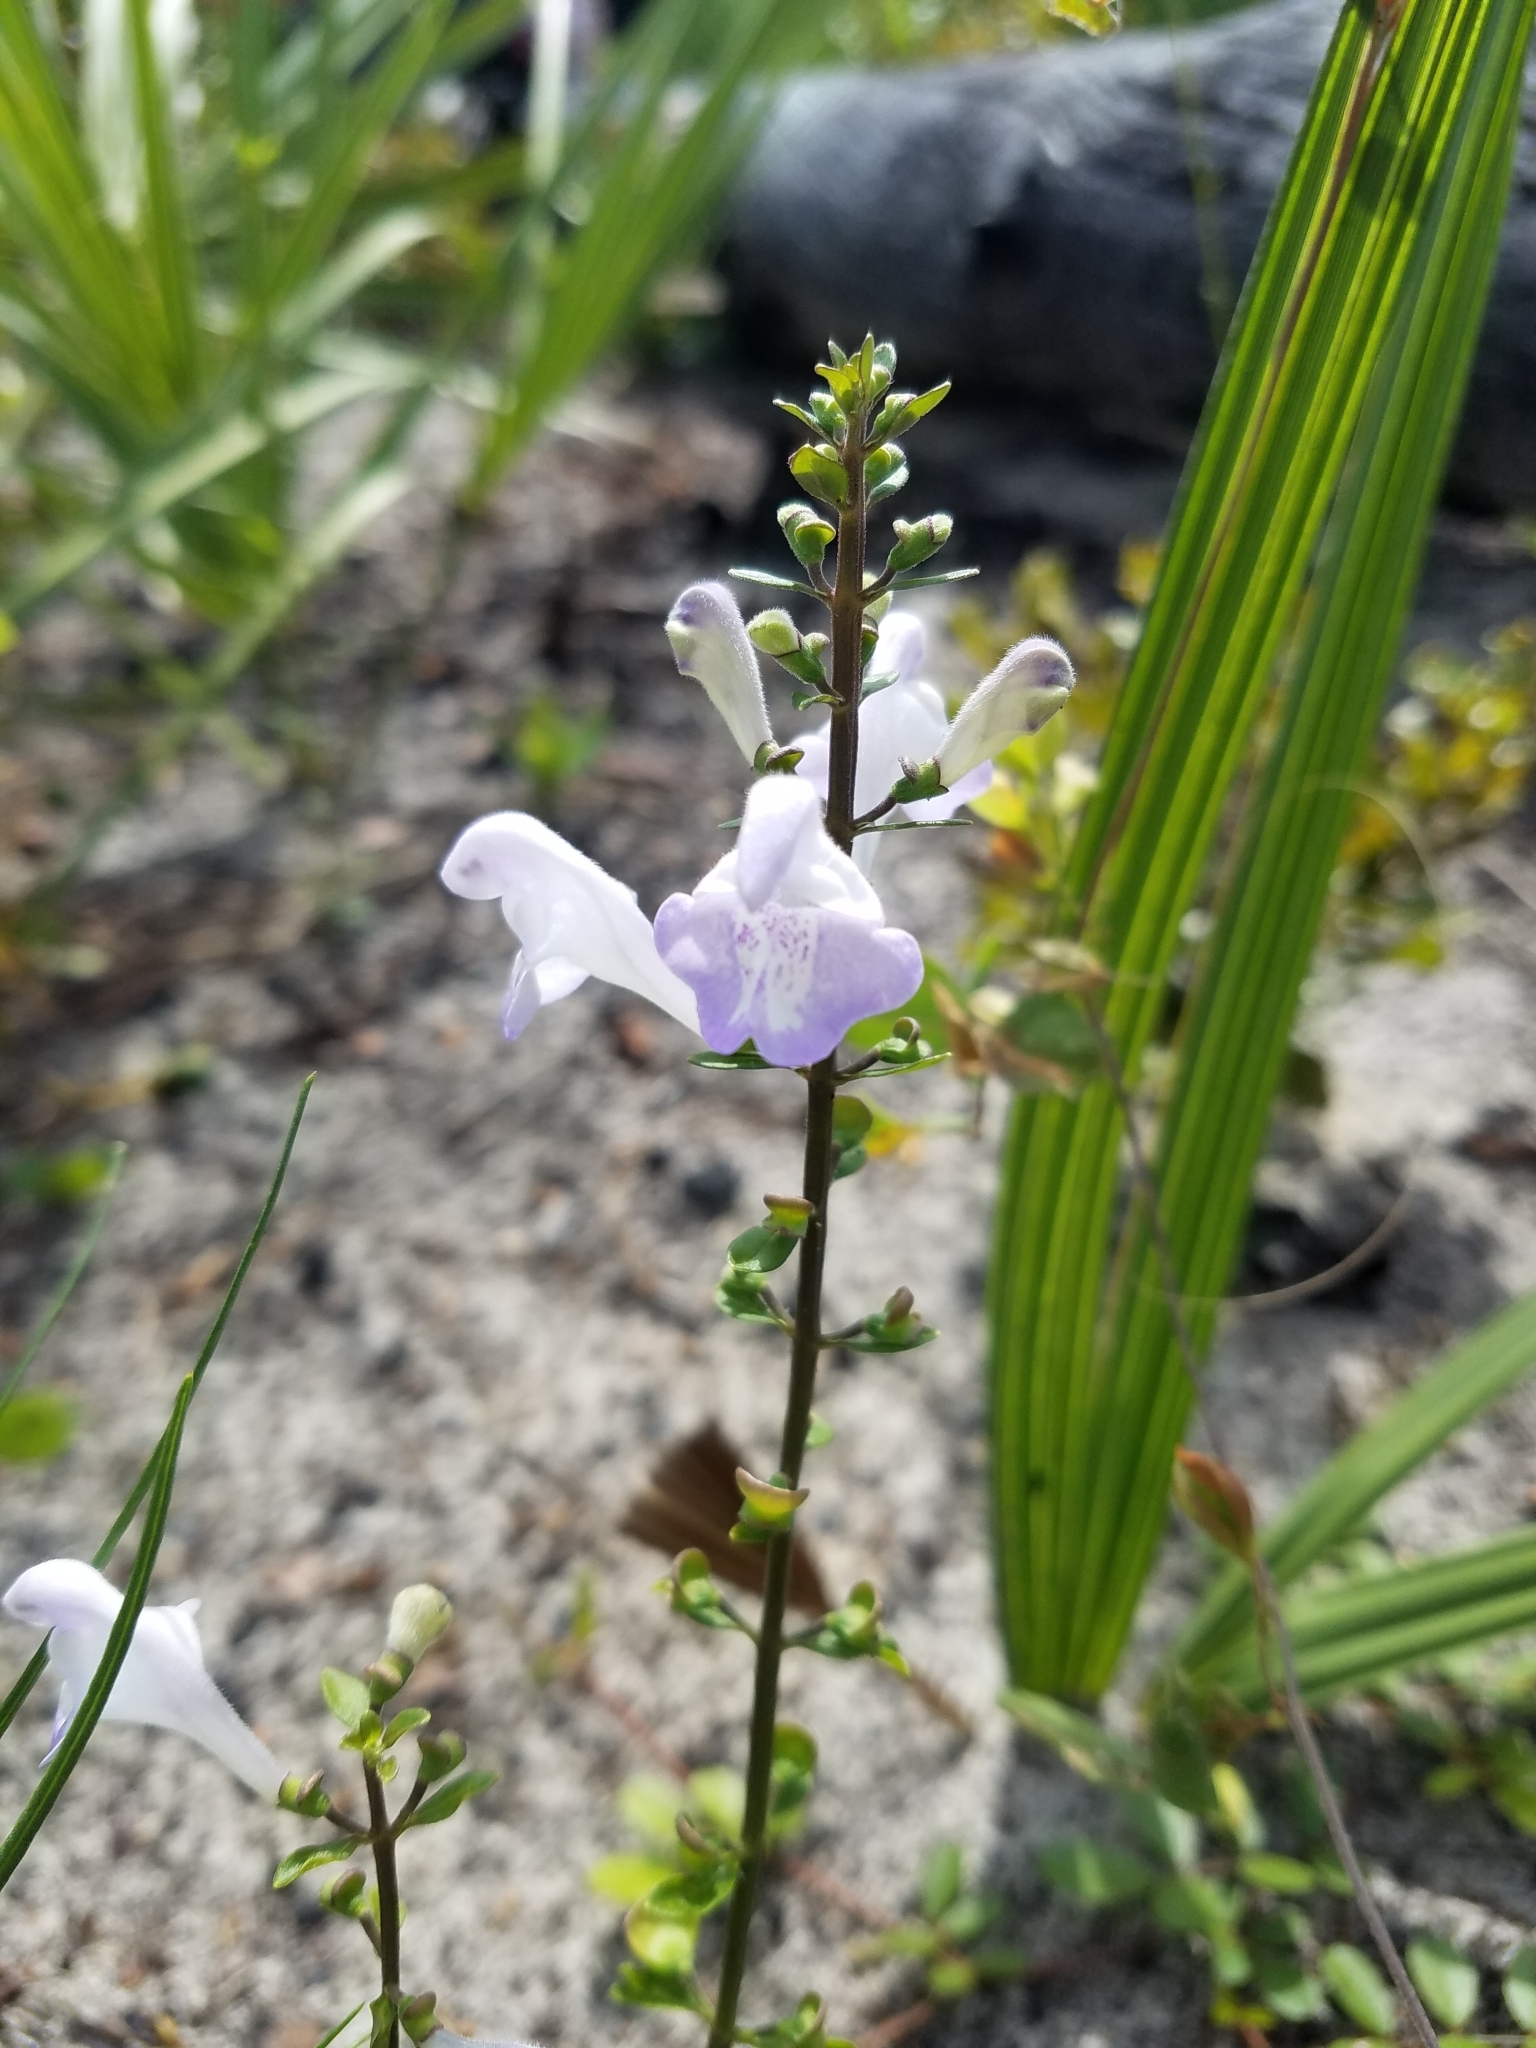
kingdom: Plantae
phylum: Tracheophyta
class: Magnoliopsida
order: Lamiales
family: Lamiaceae
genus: Scutellaria
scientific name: Scutellaria arenicola
